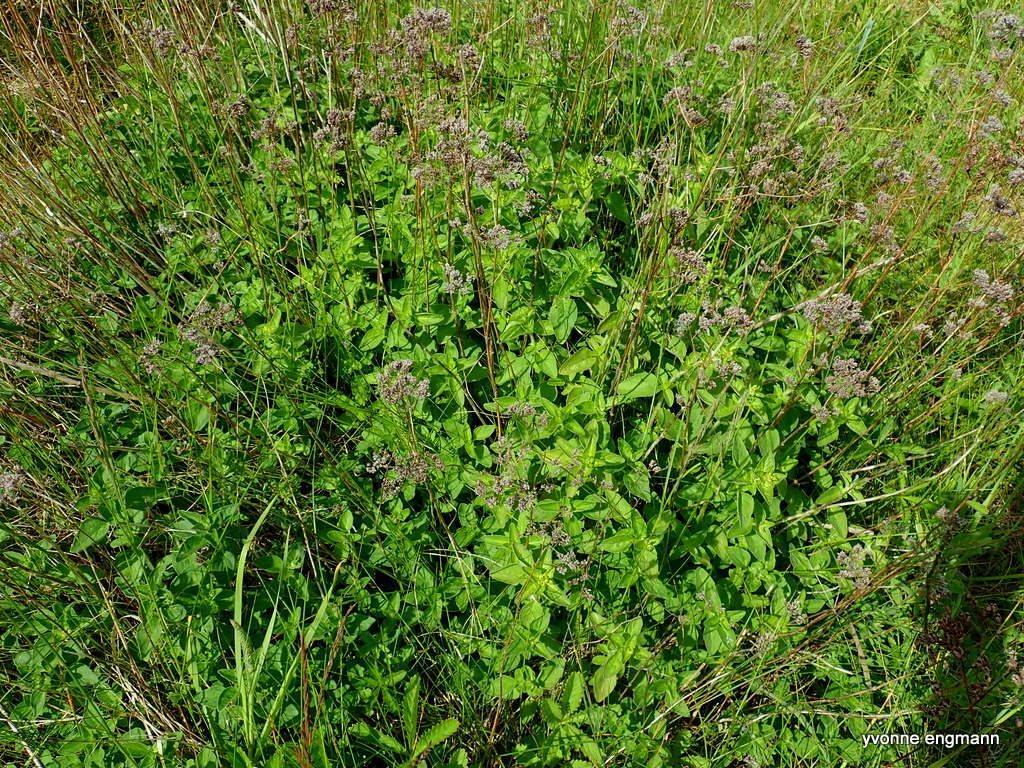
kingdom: Plantae
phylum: Tracheophyta
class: Magnoliopsida
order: Lamiales
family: Lamiaceae
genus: Origanum
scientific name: Origanum vulgare
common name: Wild marjoram
